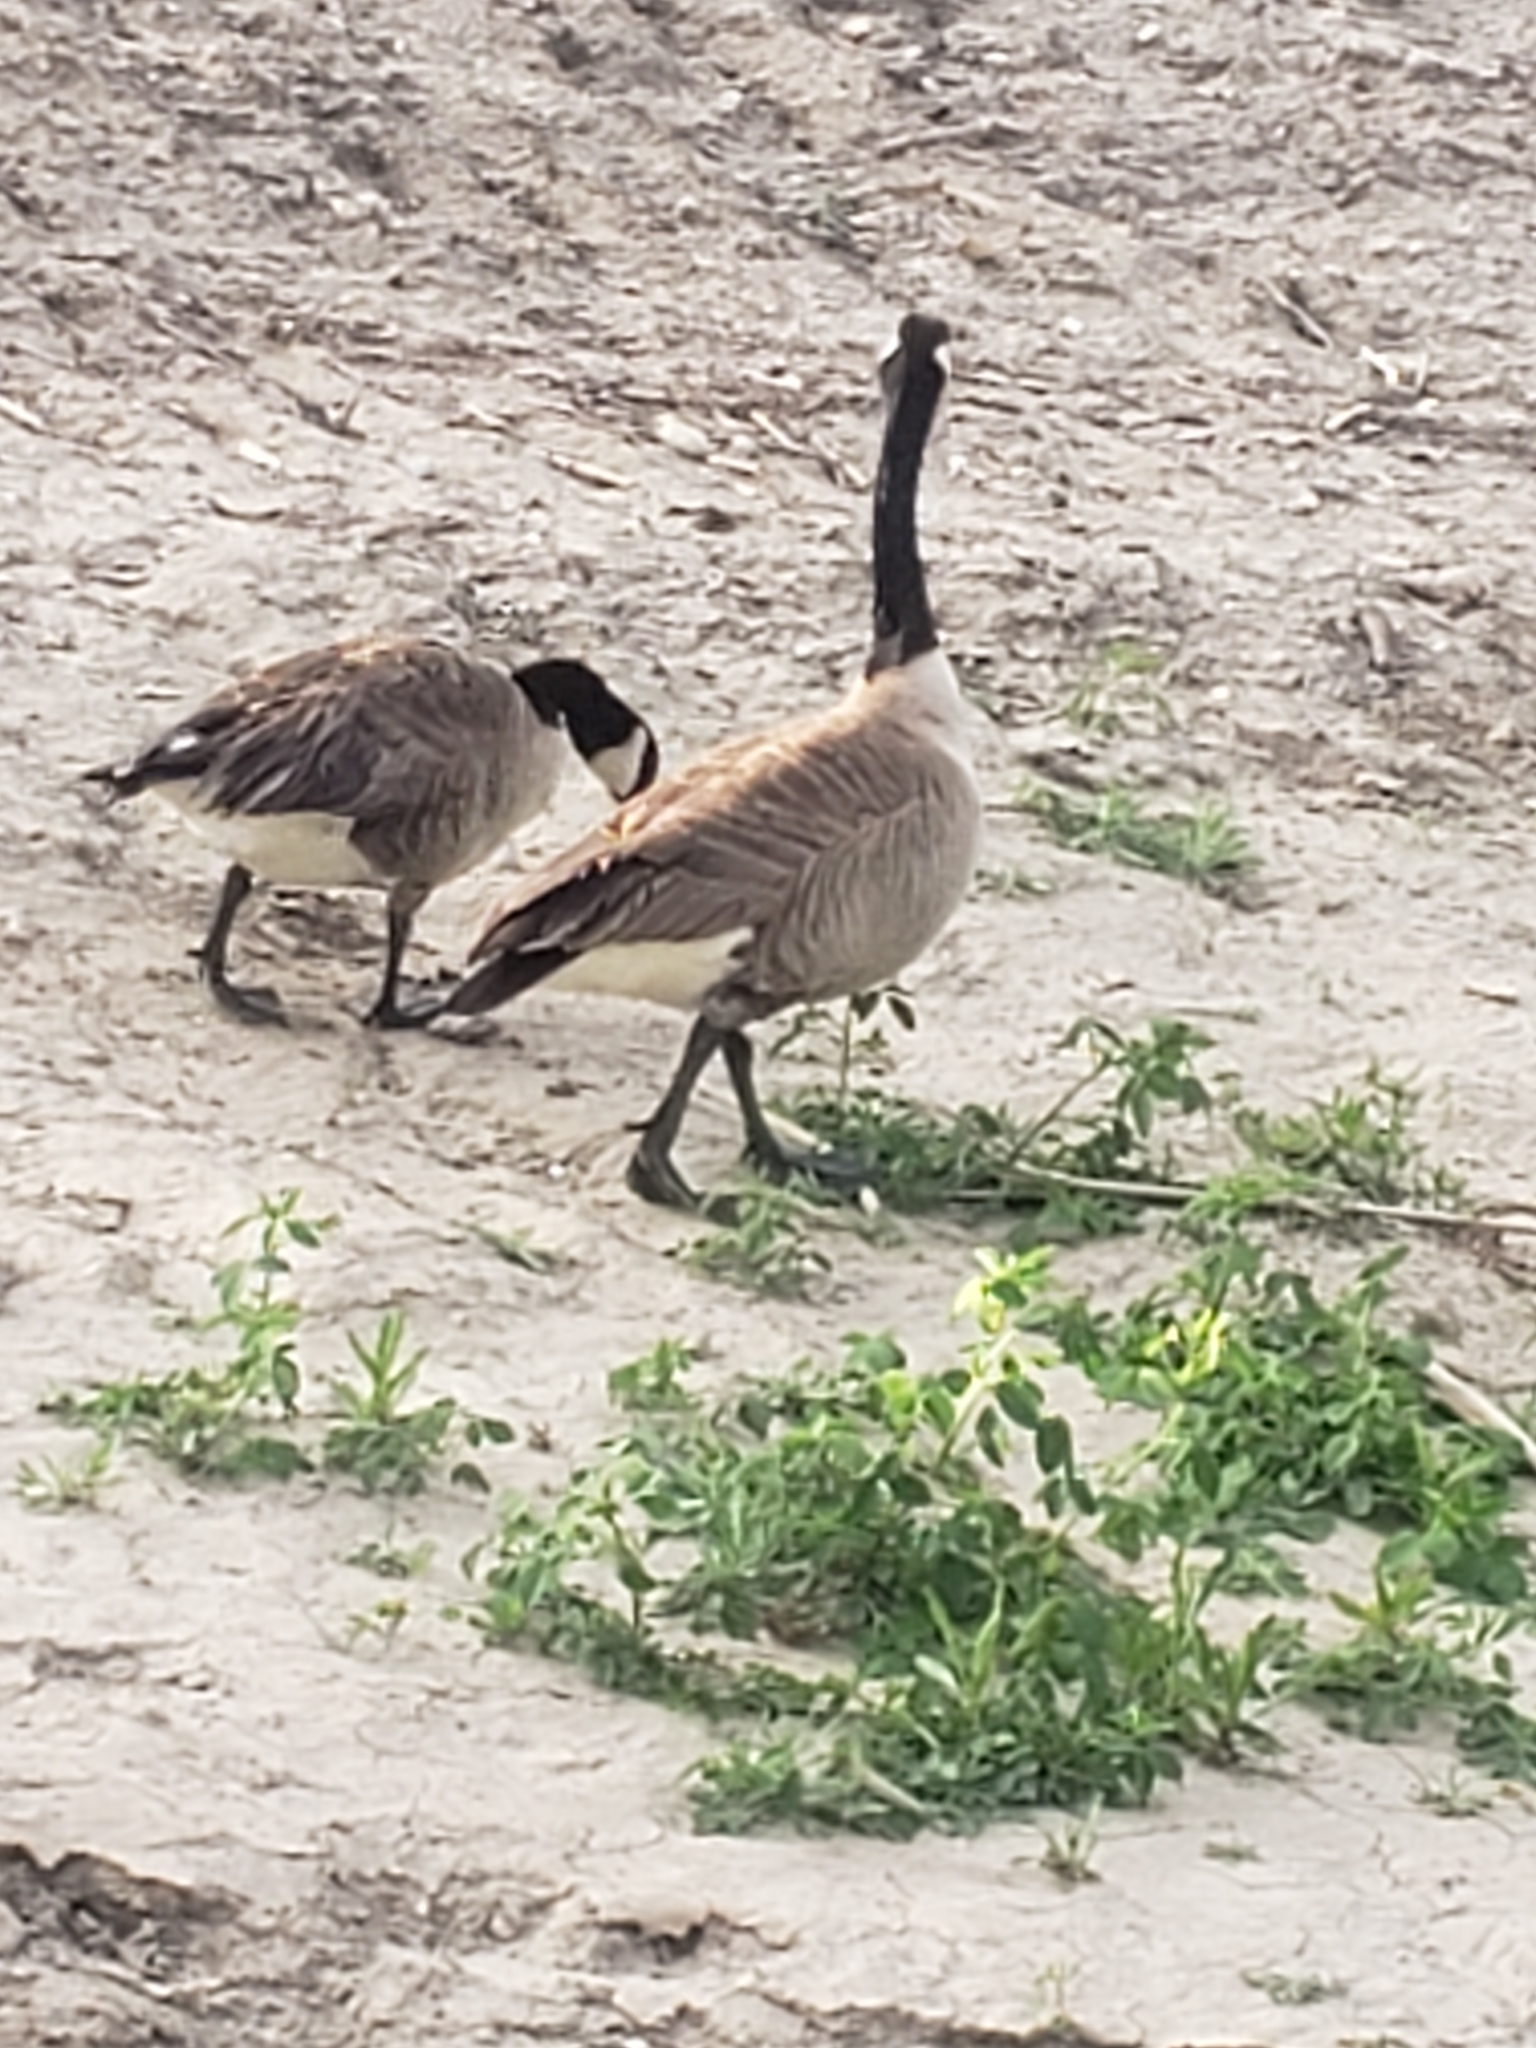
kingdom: Animalia
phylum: Chordata
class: Aves
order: Anseriformes
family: Anatidae
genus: Branta
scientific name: Branta canadensis
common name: Canada goose
